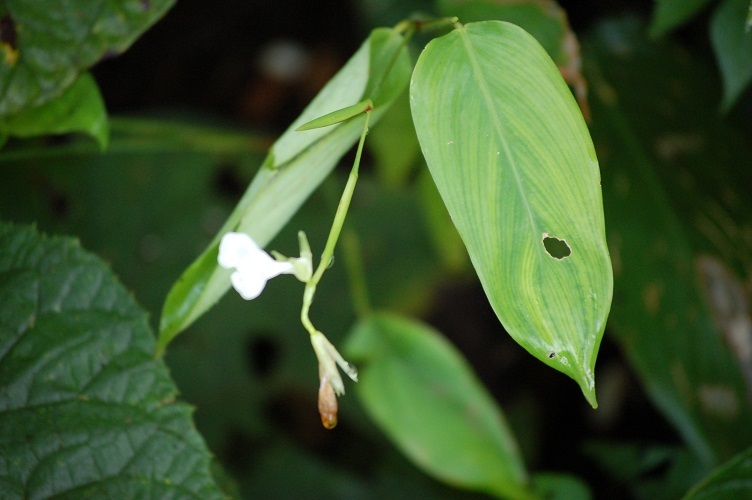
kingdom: Plantae
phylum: Tracheophyta
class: Liliopsida
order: Zingiberales
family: Marantaceae
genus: Maranta
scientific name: Maranta arundinacea
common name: Arrowroot
